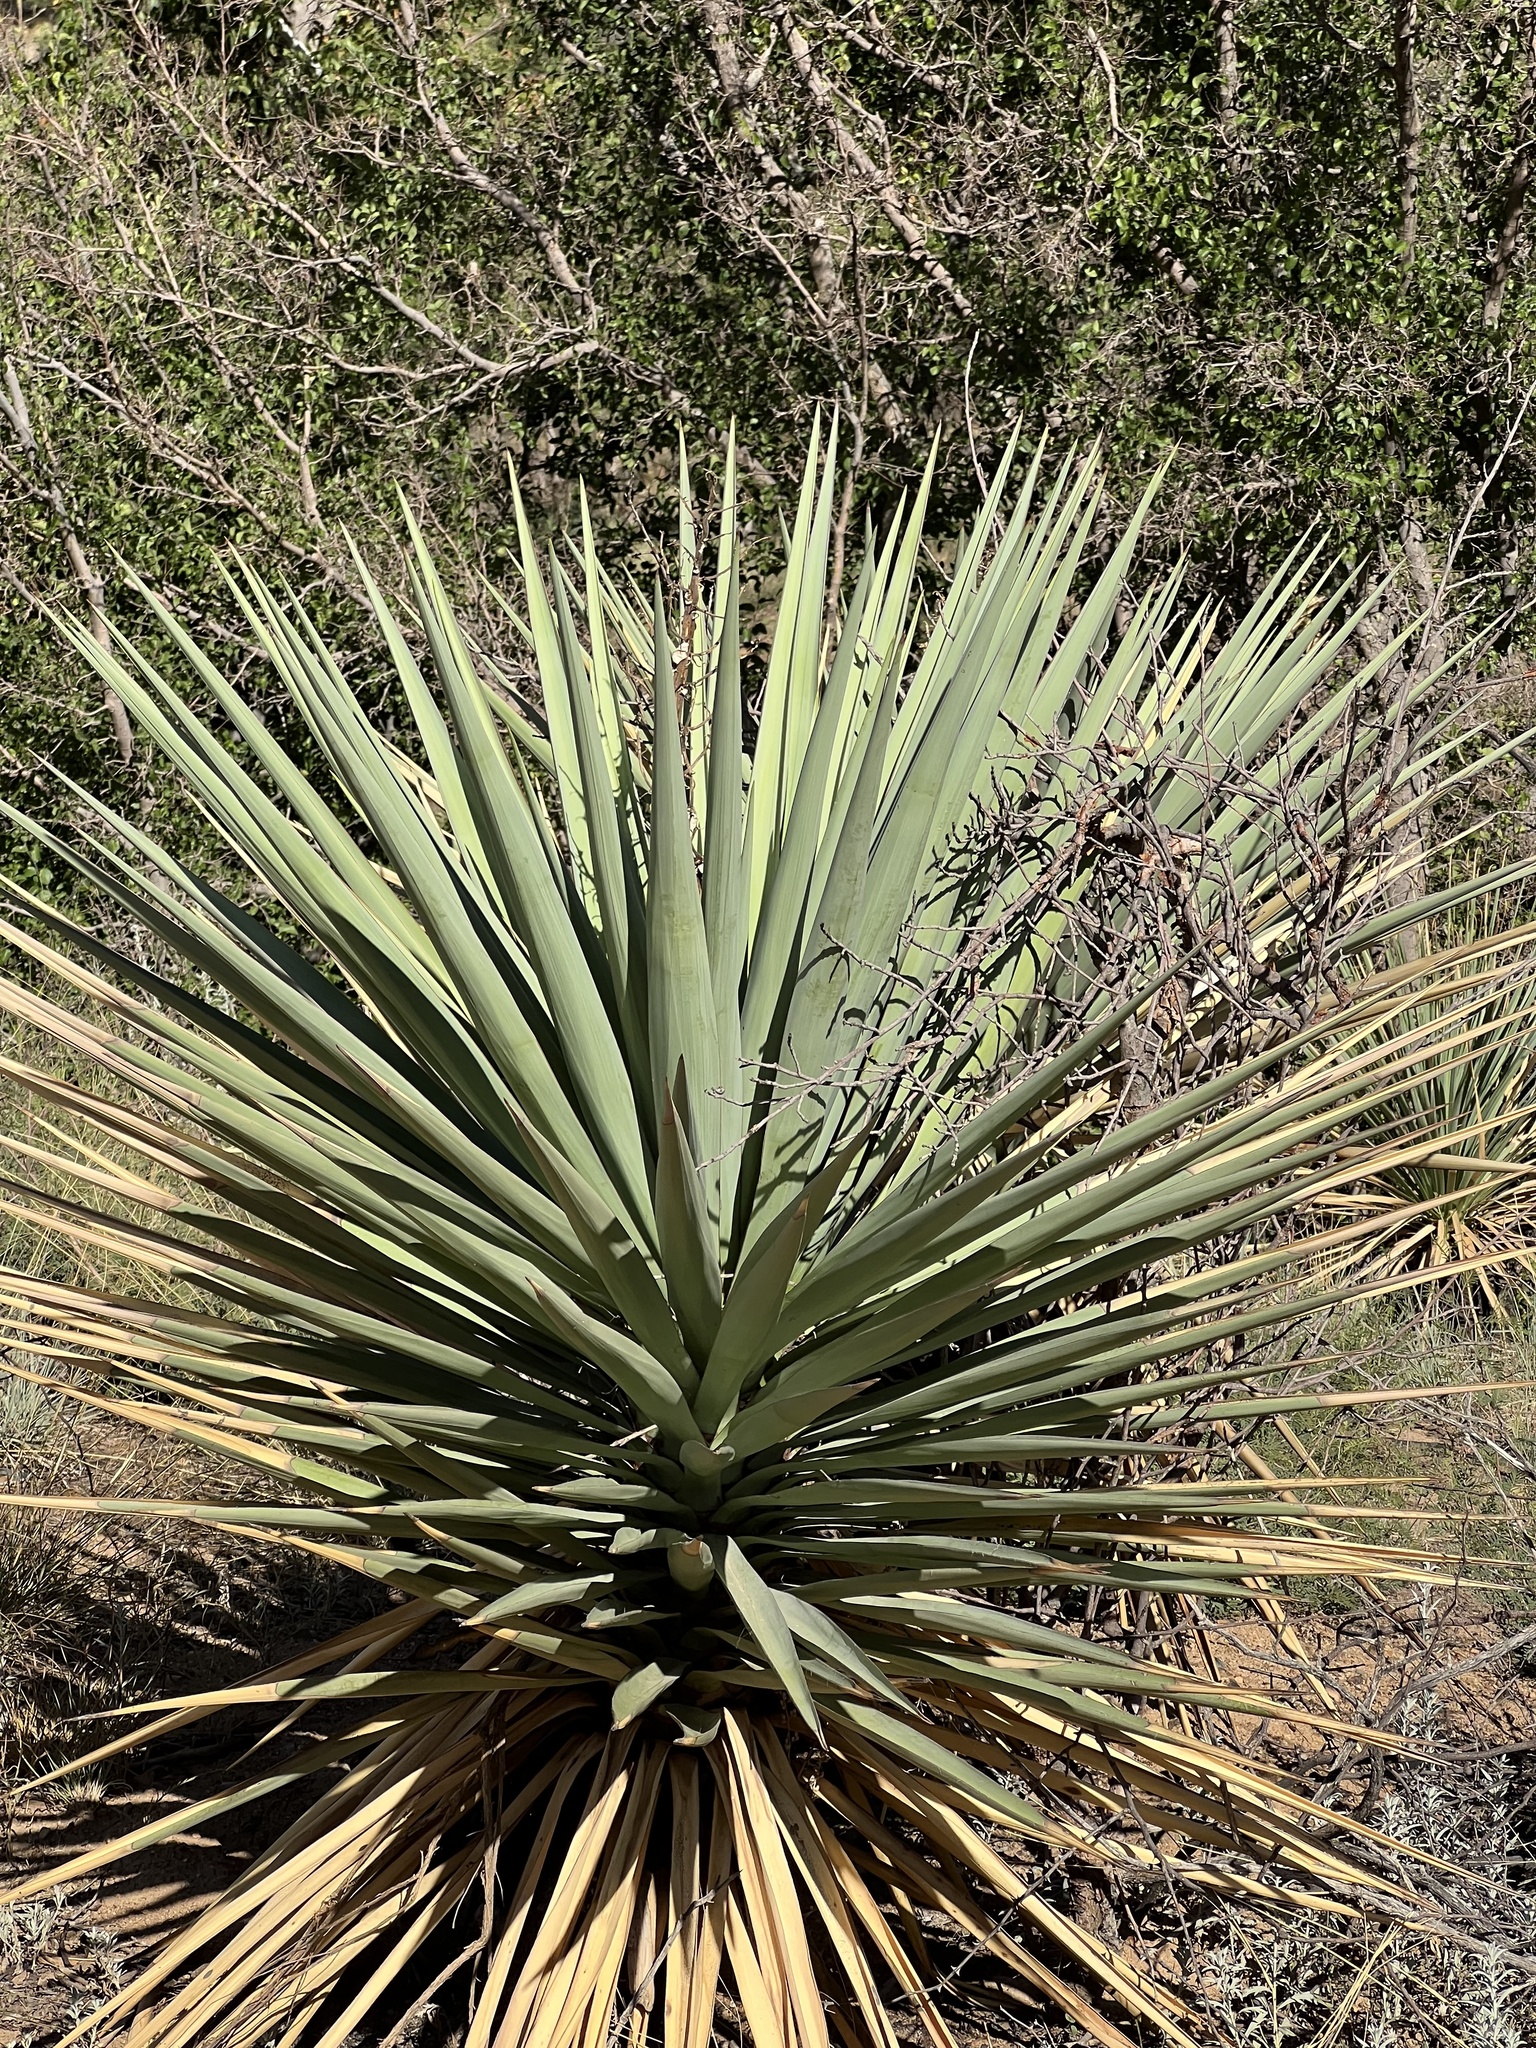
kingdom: Plantae
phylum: Tracheophyta
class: Liliopsida
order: Asparagales
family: Asparagaceae
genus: Yucca
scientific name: Yucca schottii
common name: Hoary yucca
